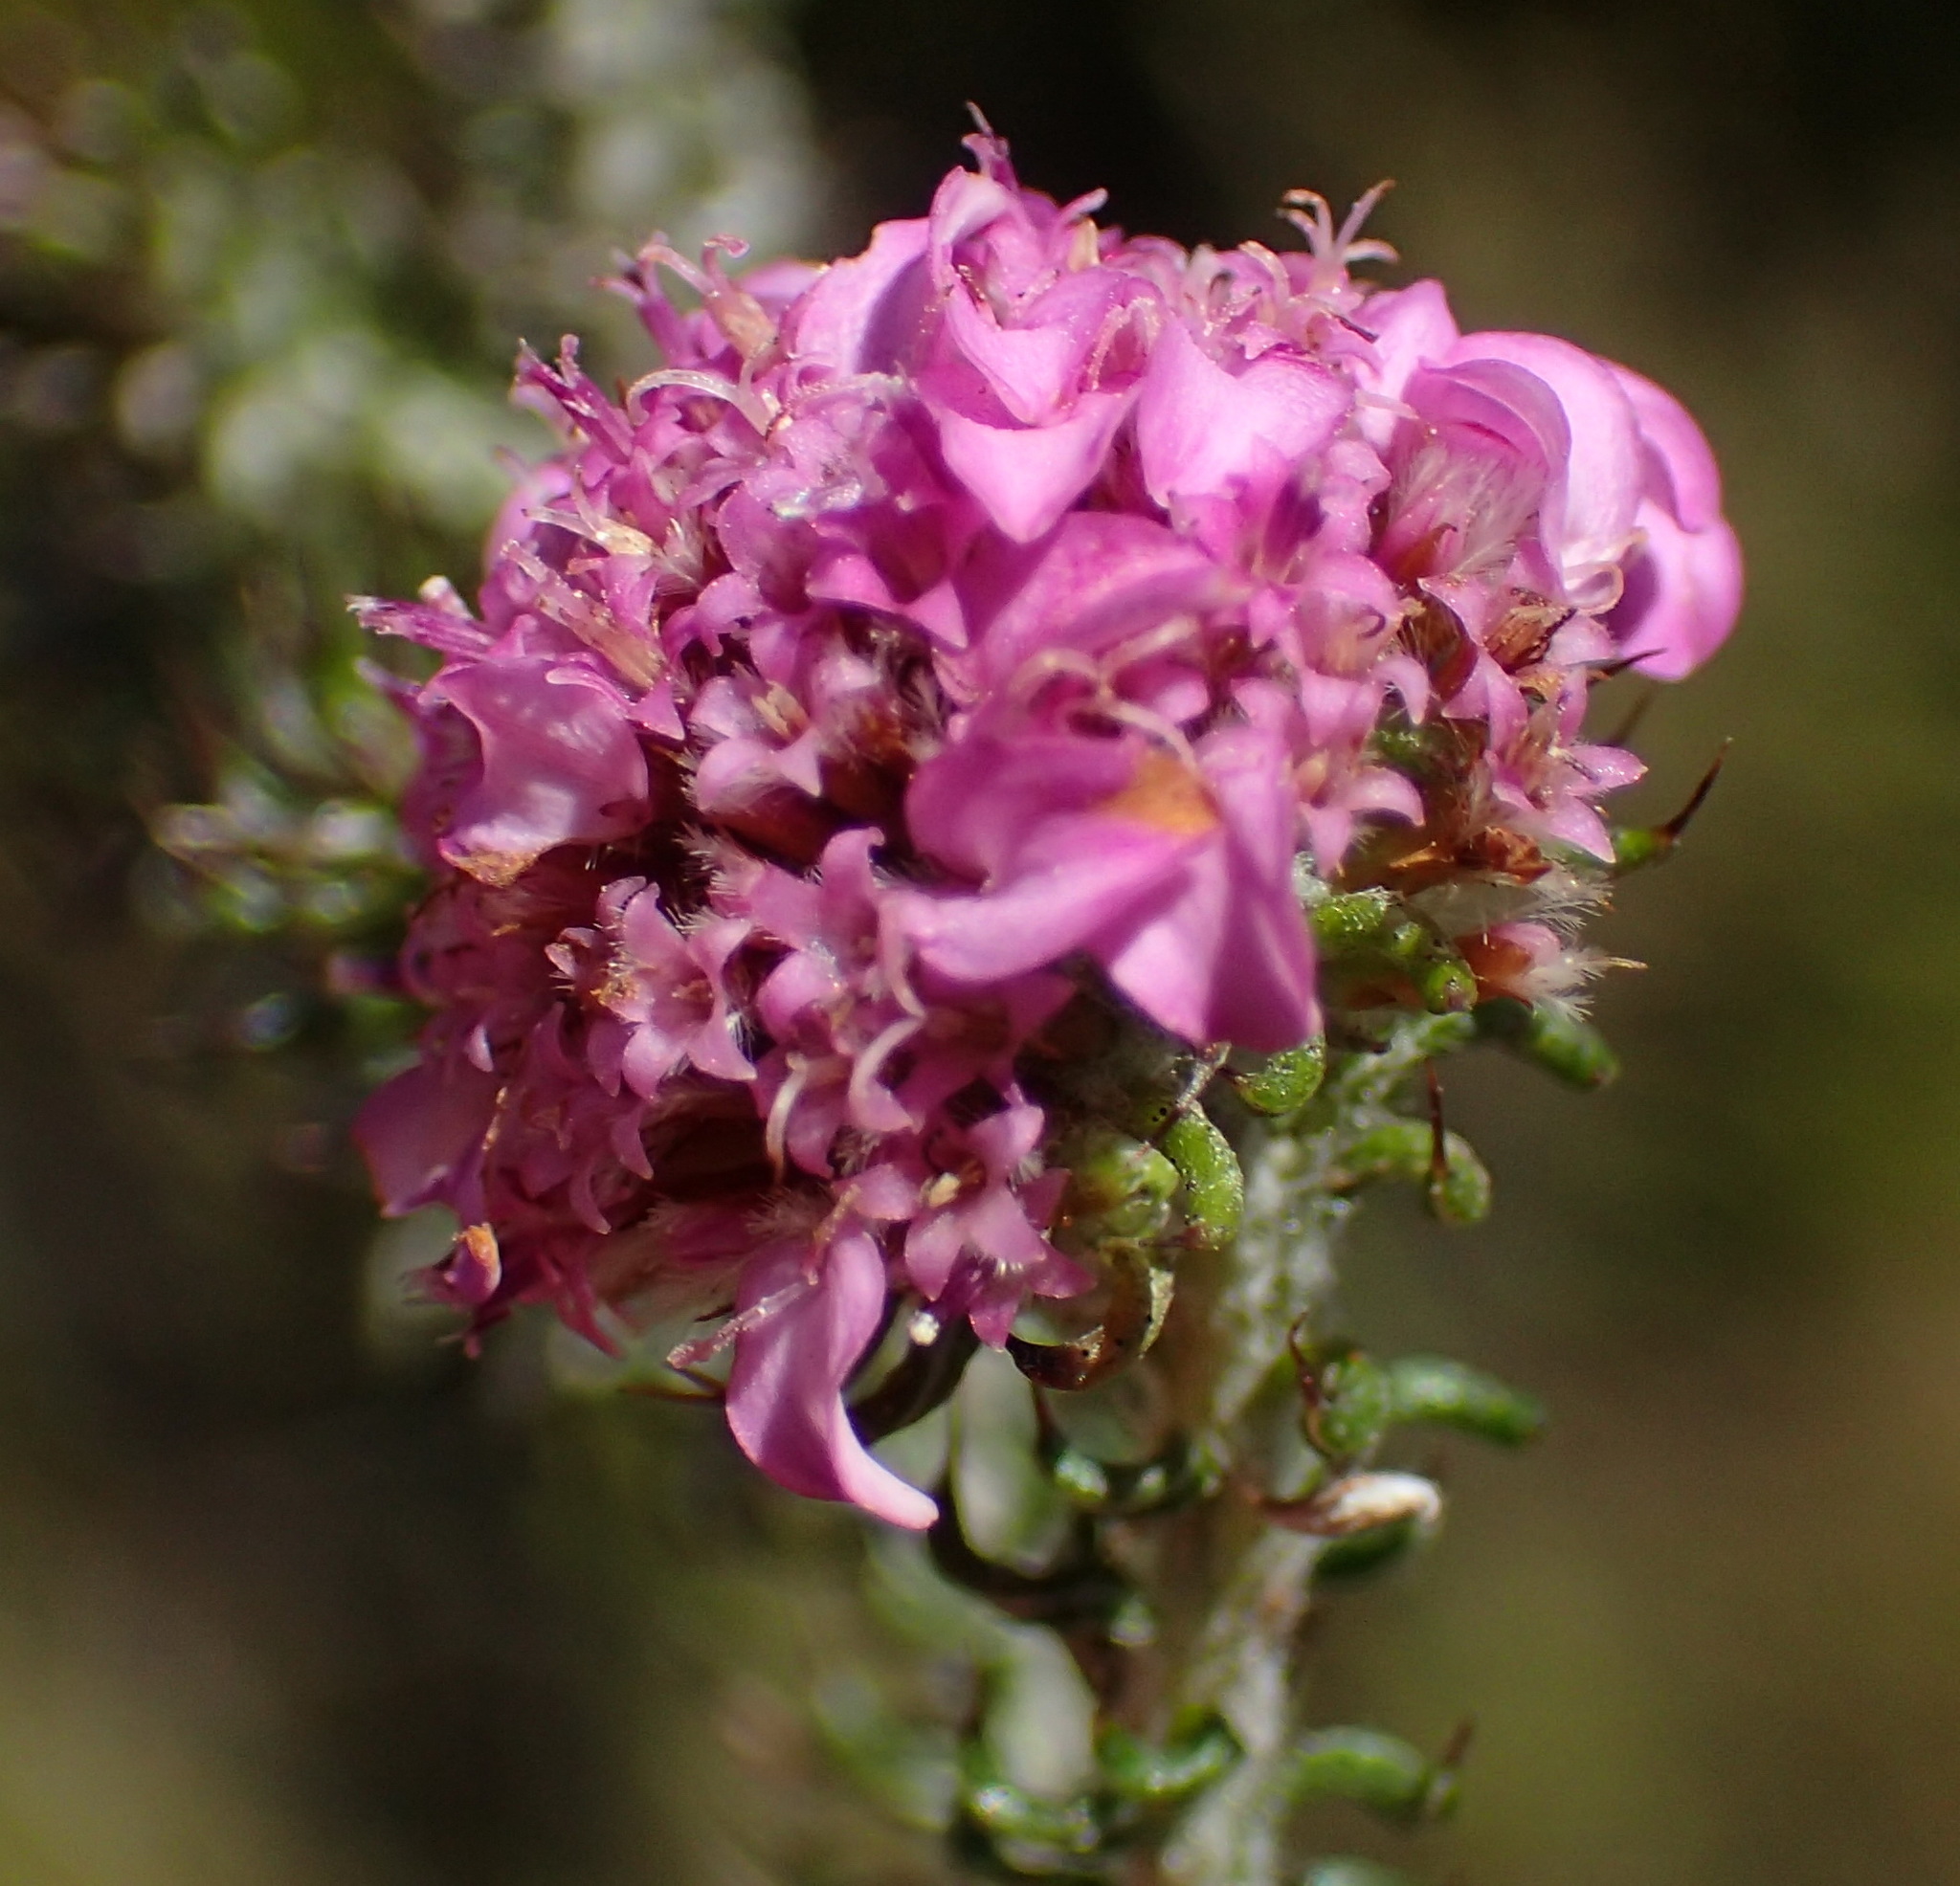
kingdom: Plantae
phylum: Tracheophyta
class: Magnoliopsida
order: Asterales
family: Asteraceae
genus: Disparago
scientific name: Disparago tortilis
